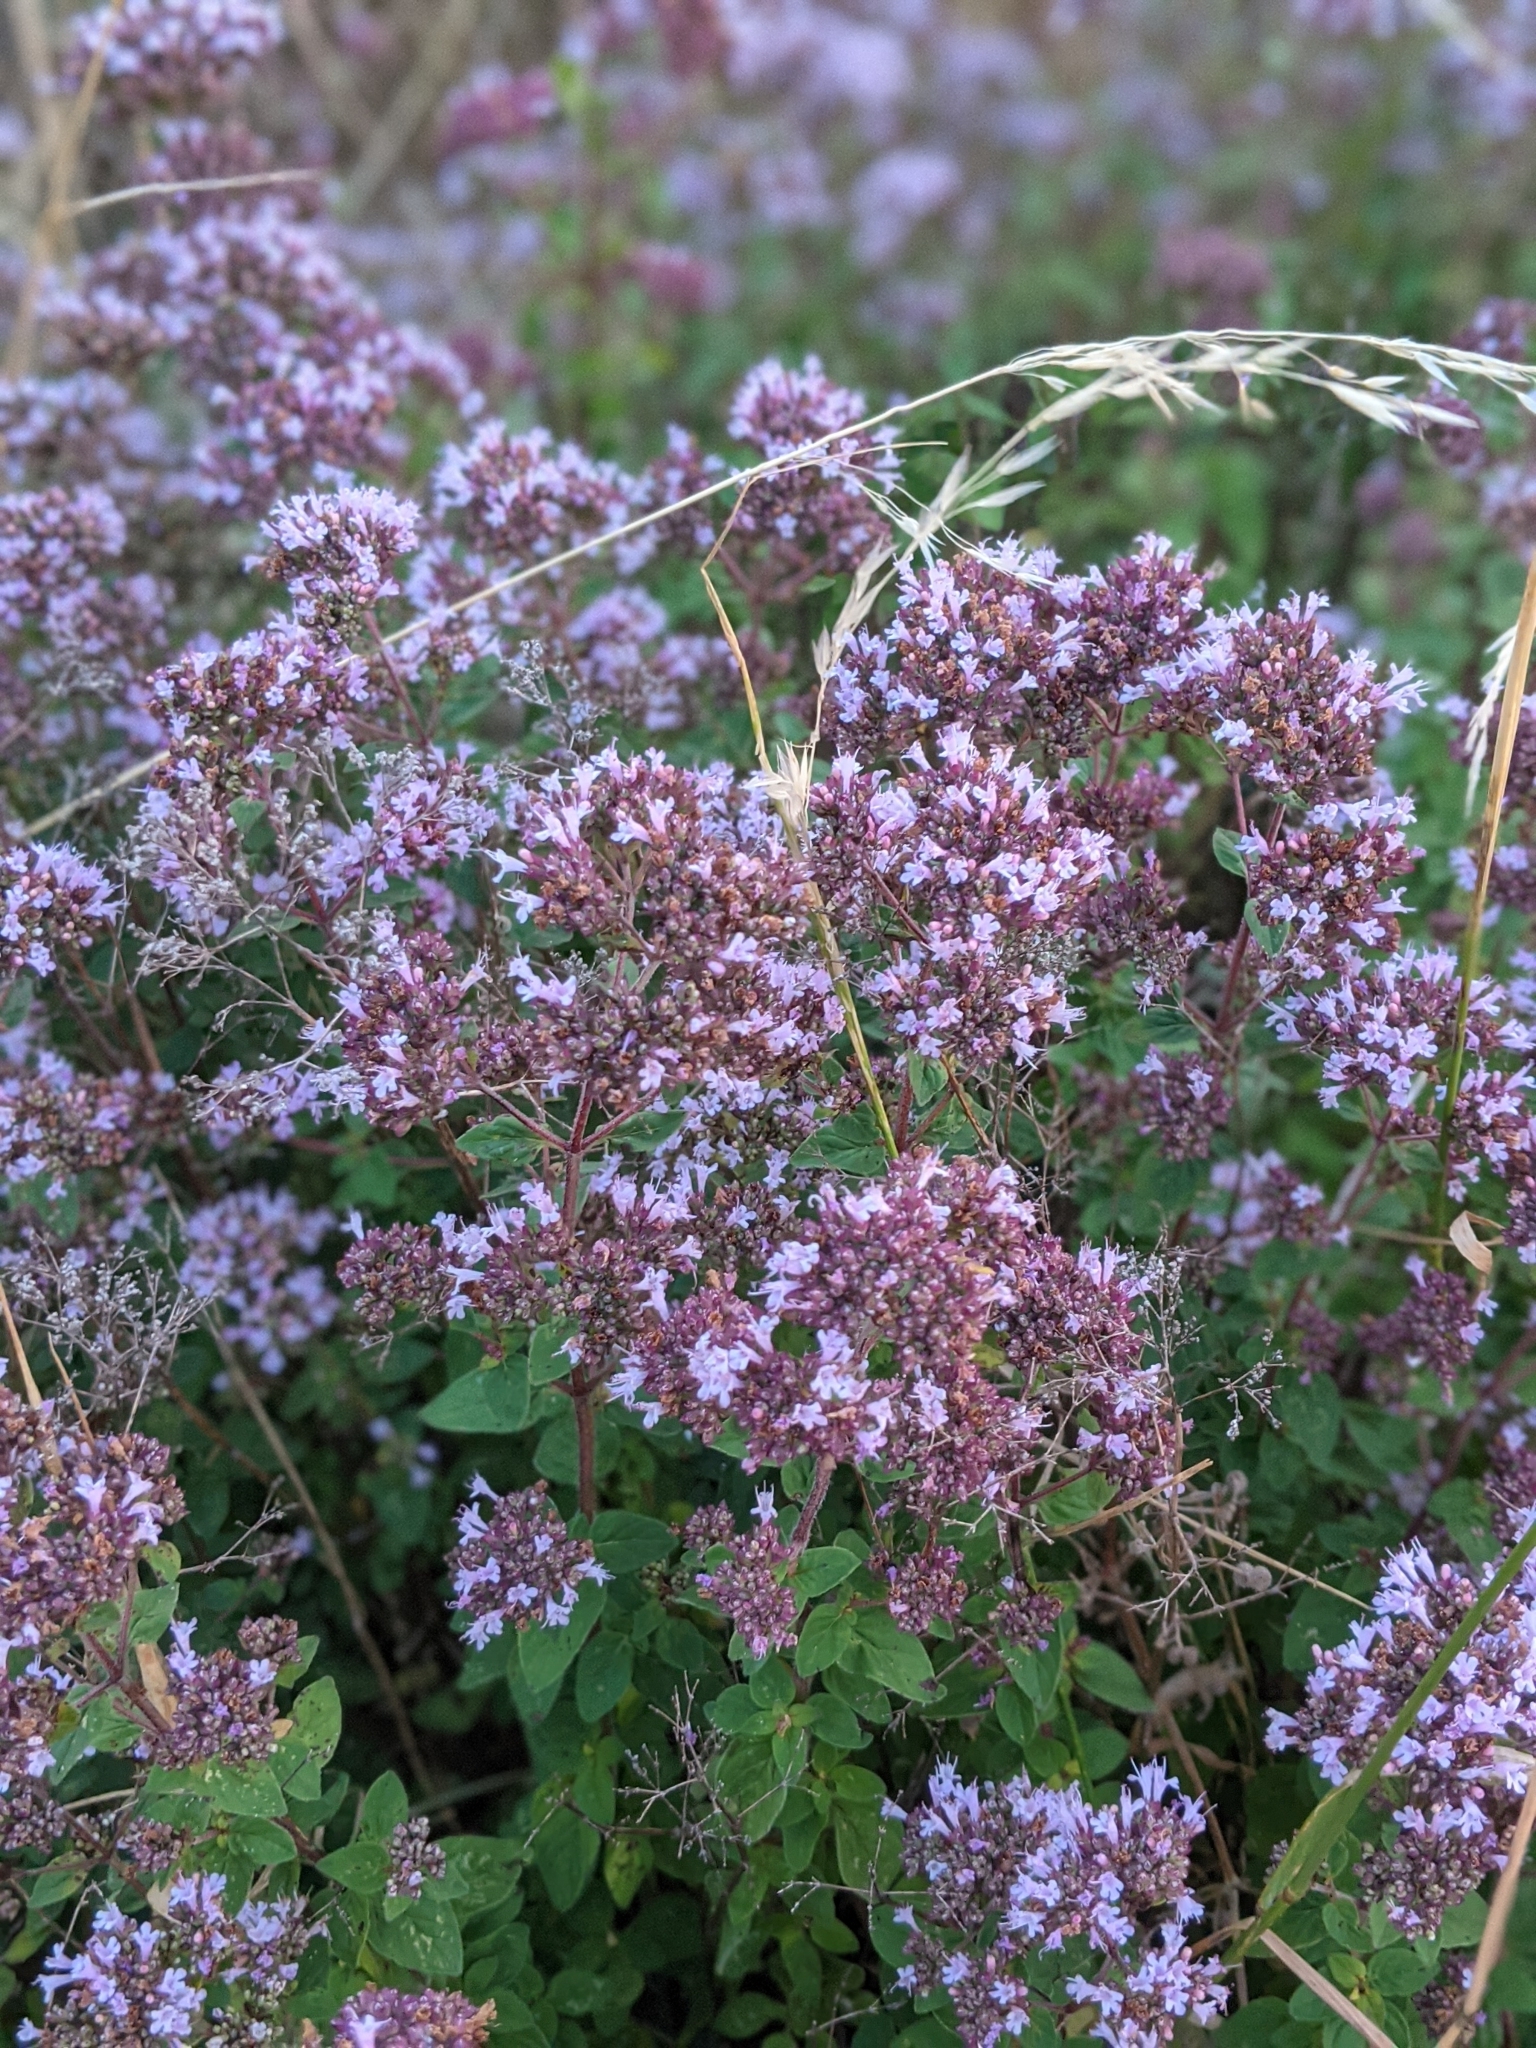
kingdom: Plantae
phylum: Tracheophyta
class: Magnoliopsida
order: Lamiales
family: Lamiaceae
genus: Origanum
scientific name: Origanum vulgare
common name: Wild marjoram
